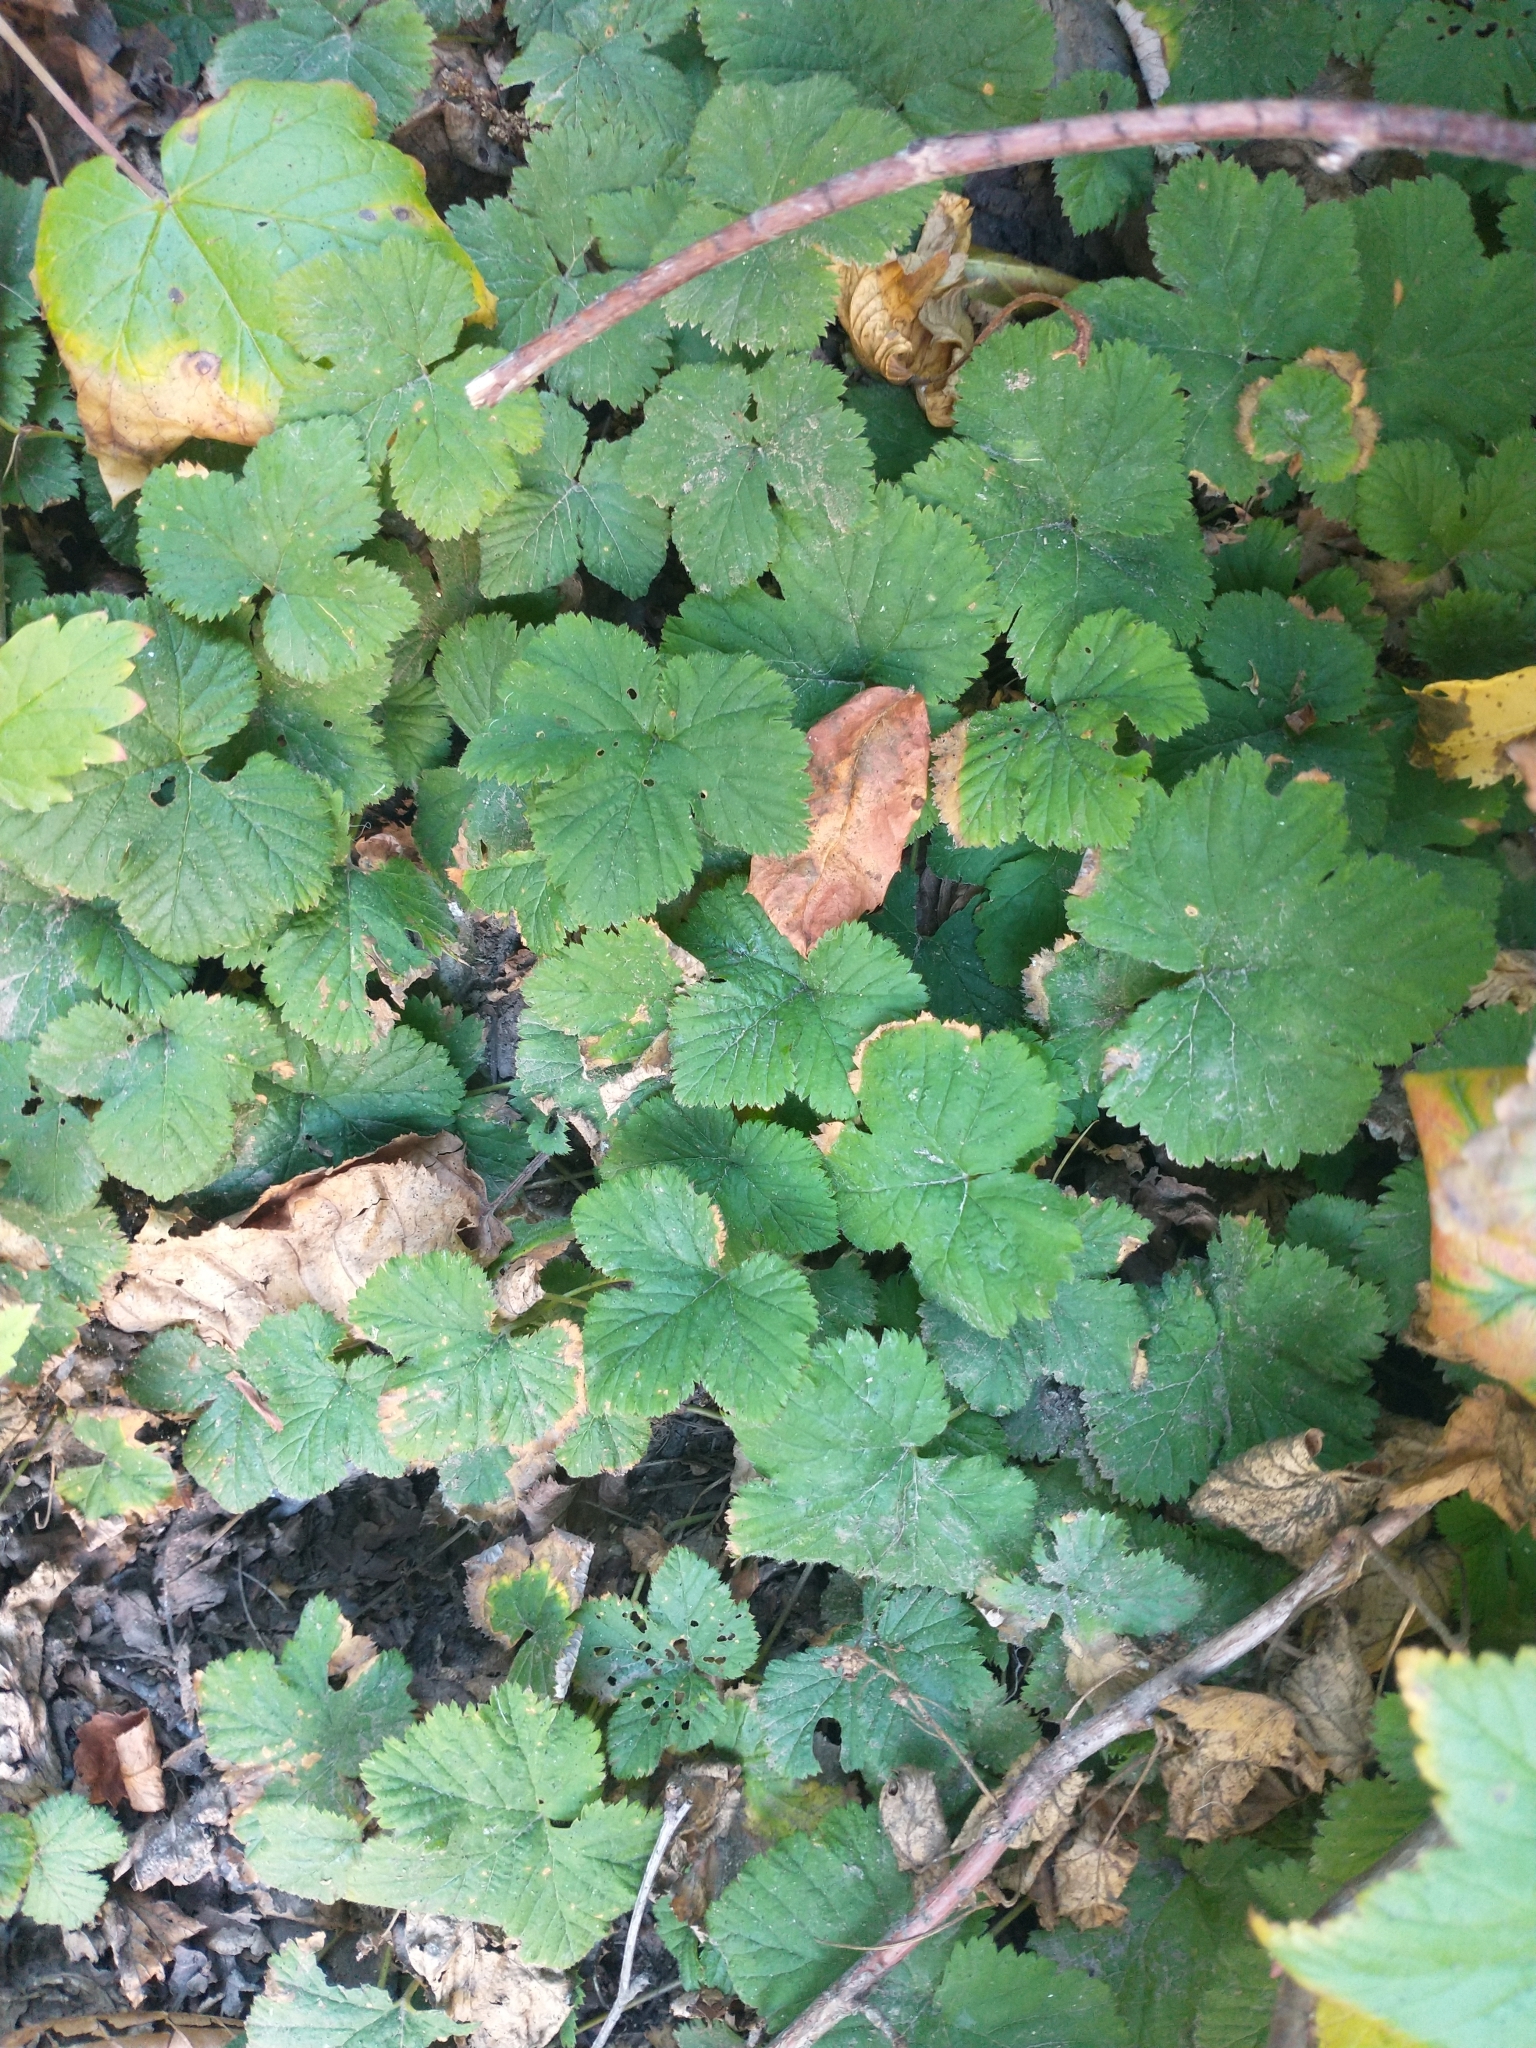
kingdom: Plantae
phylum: Tracheophyta
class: Magnoliopsida
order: Rosales
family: Rosaceae
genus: Rubus
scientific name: Rubus lasiococcus
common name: Dwarf bramble
